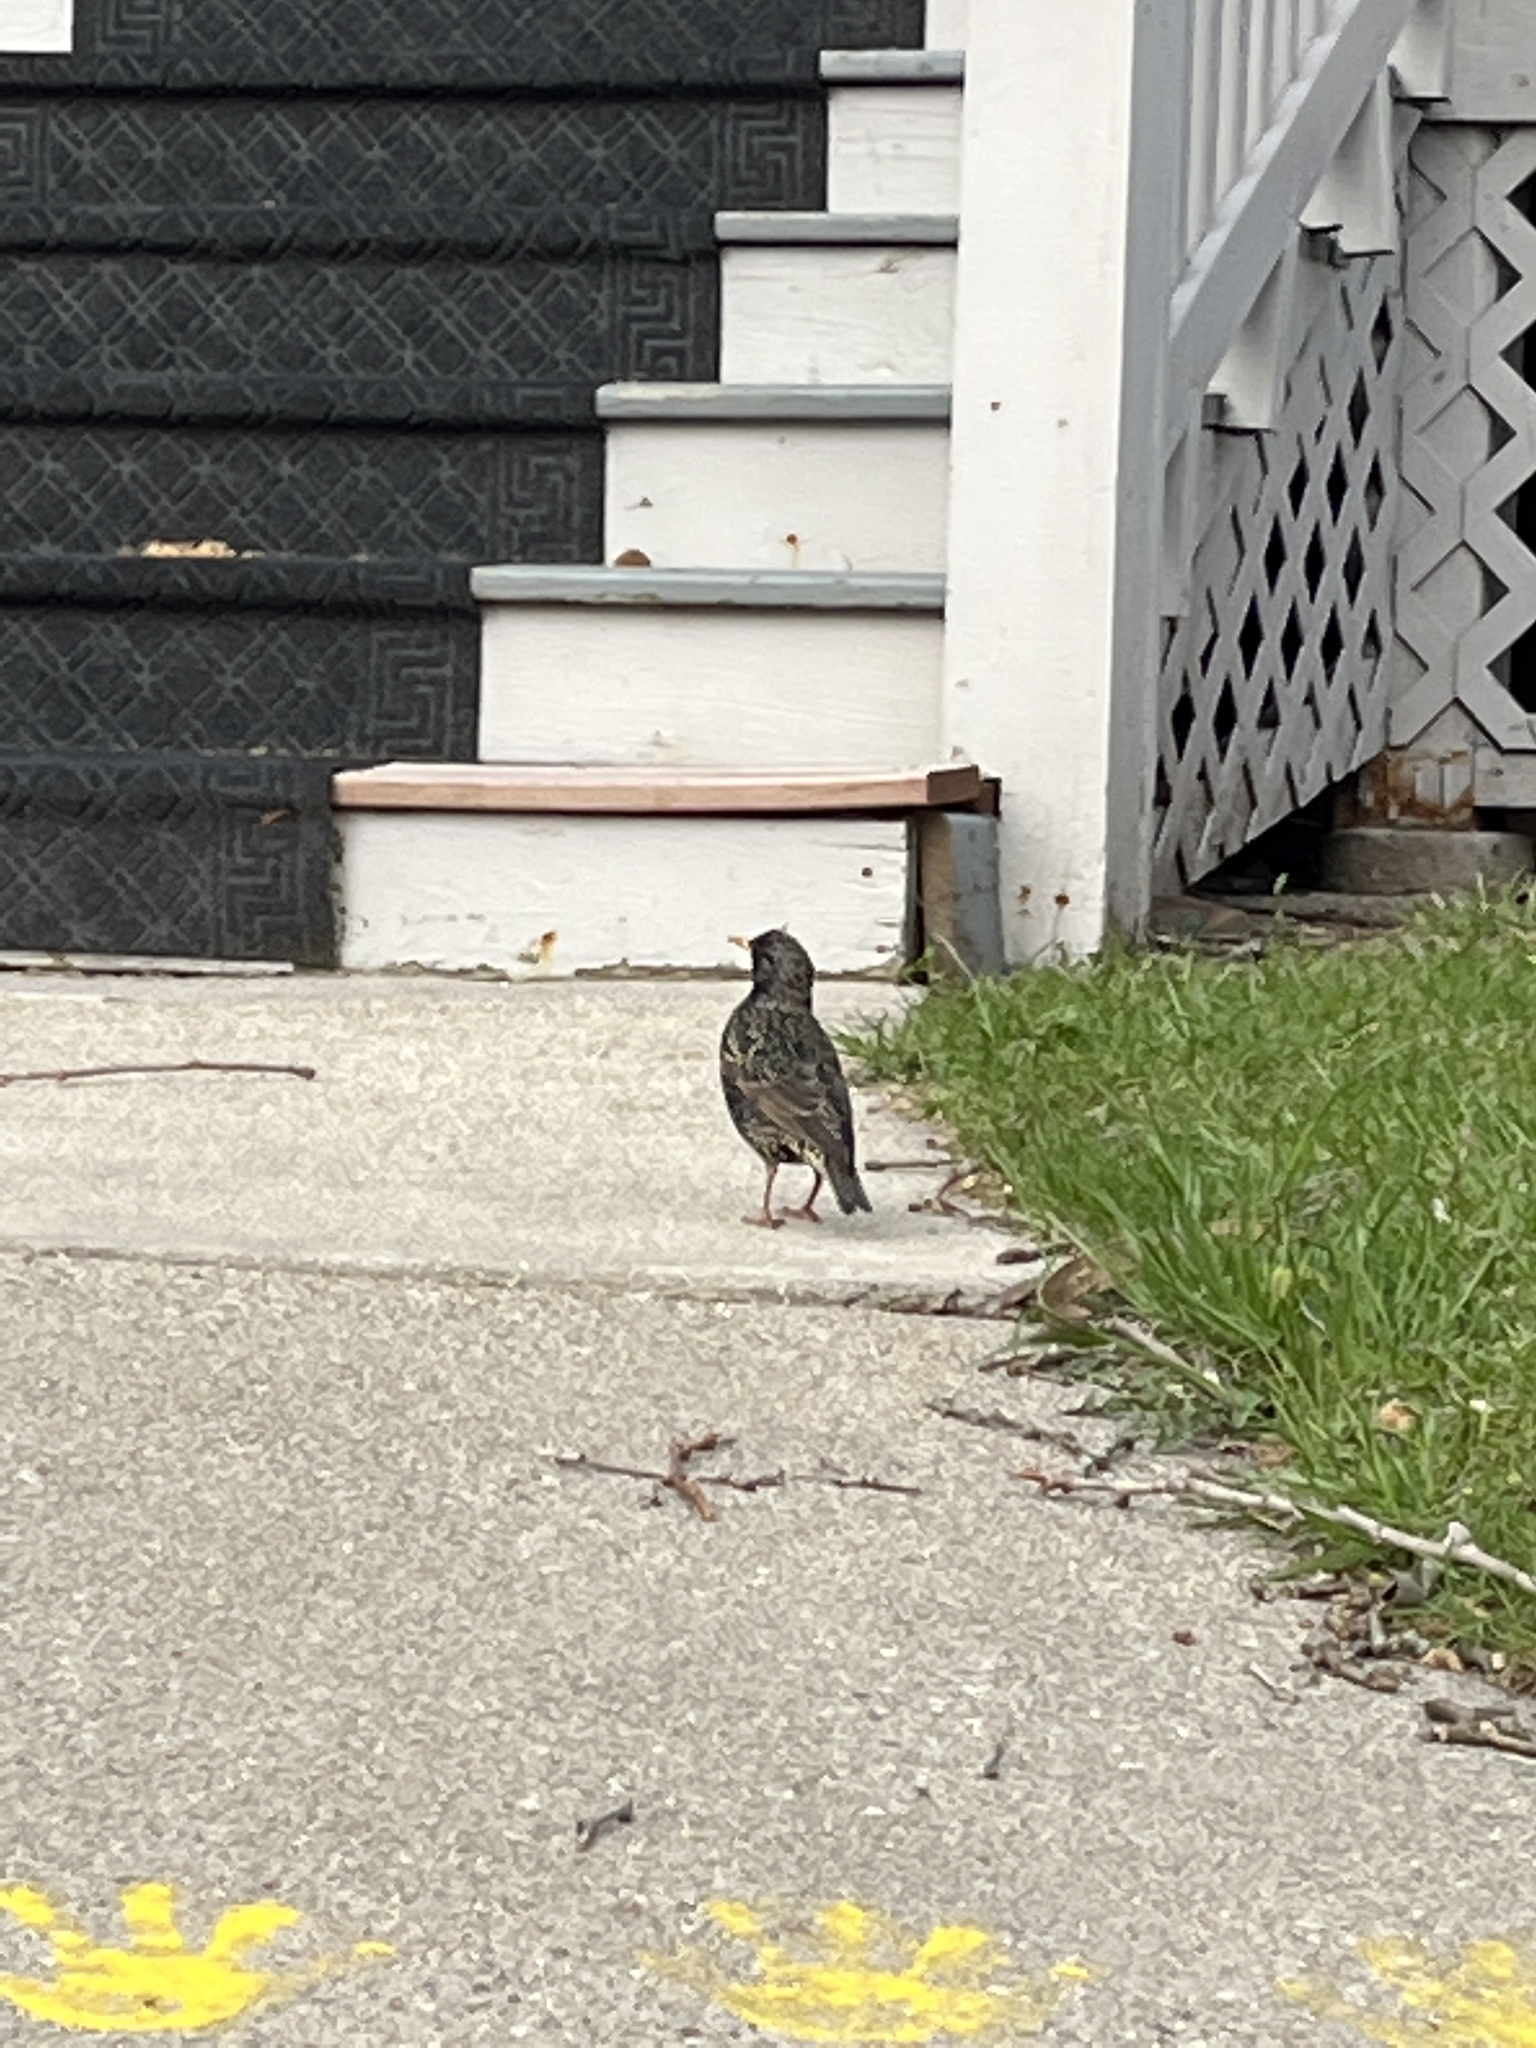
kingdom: Animalia
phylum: Chordata
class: Aves
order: Passeriformes
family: Sturnidae
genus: Sturnus
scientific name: Sturnus vulgaris
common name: Common starling
